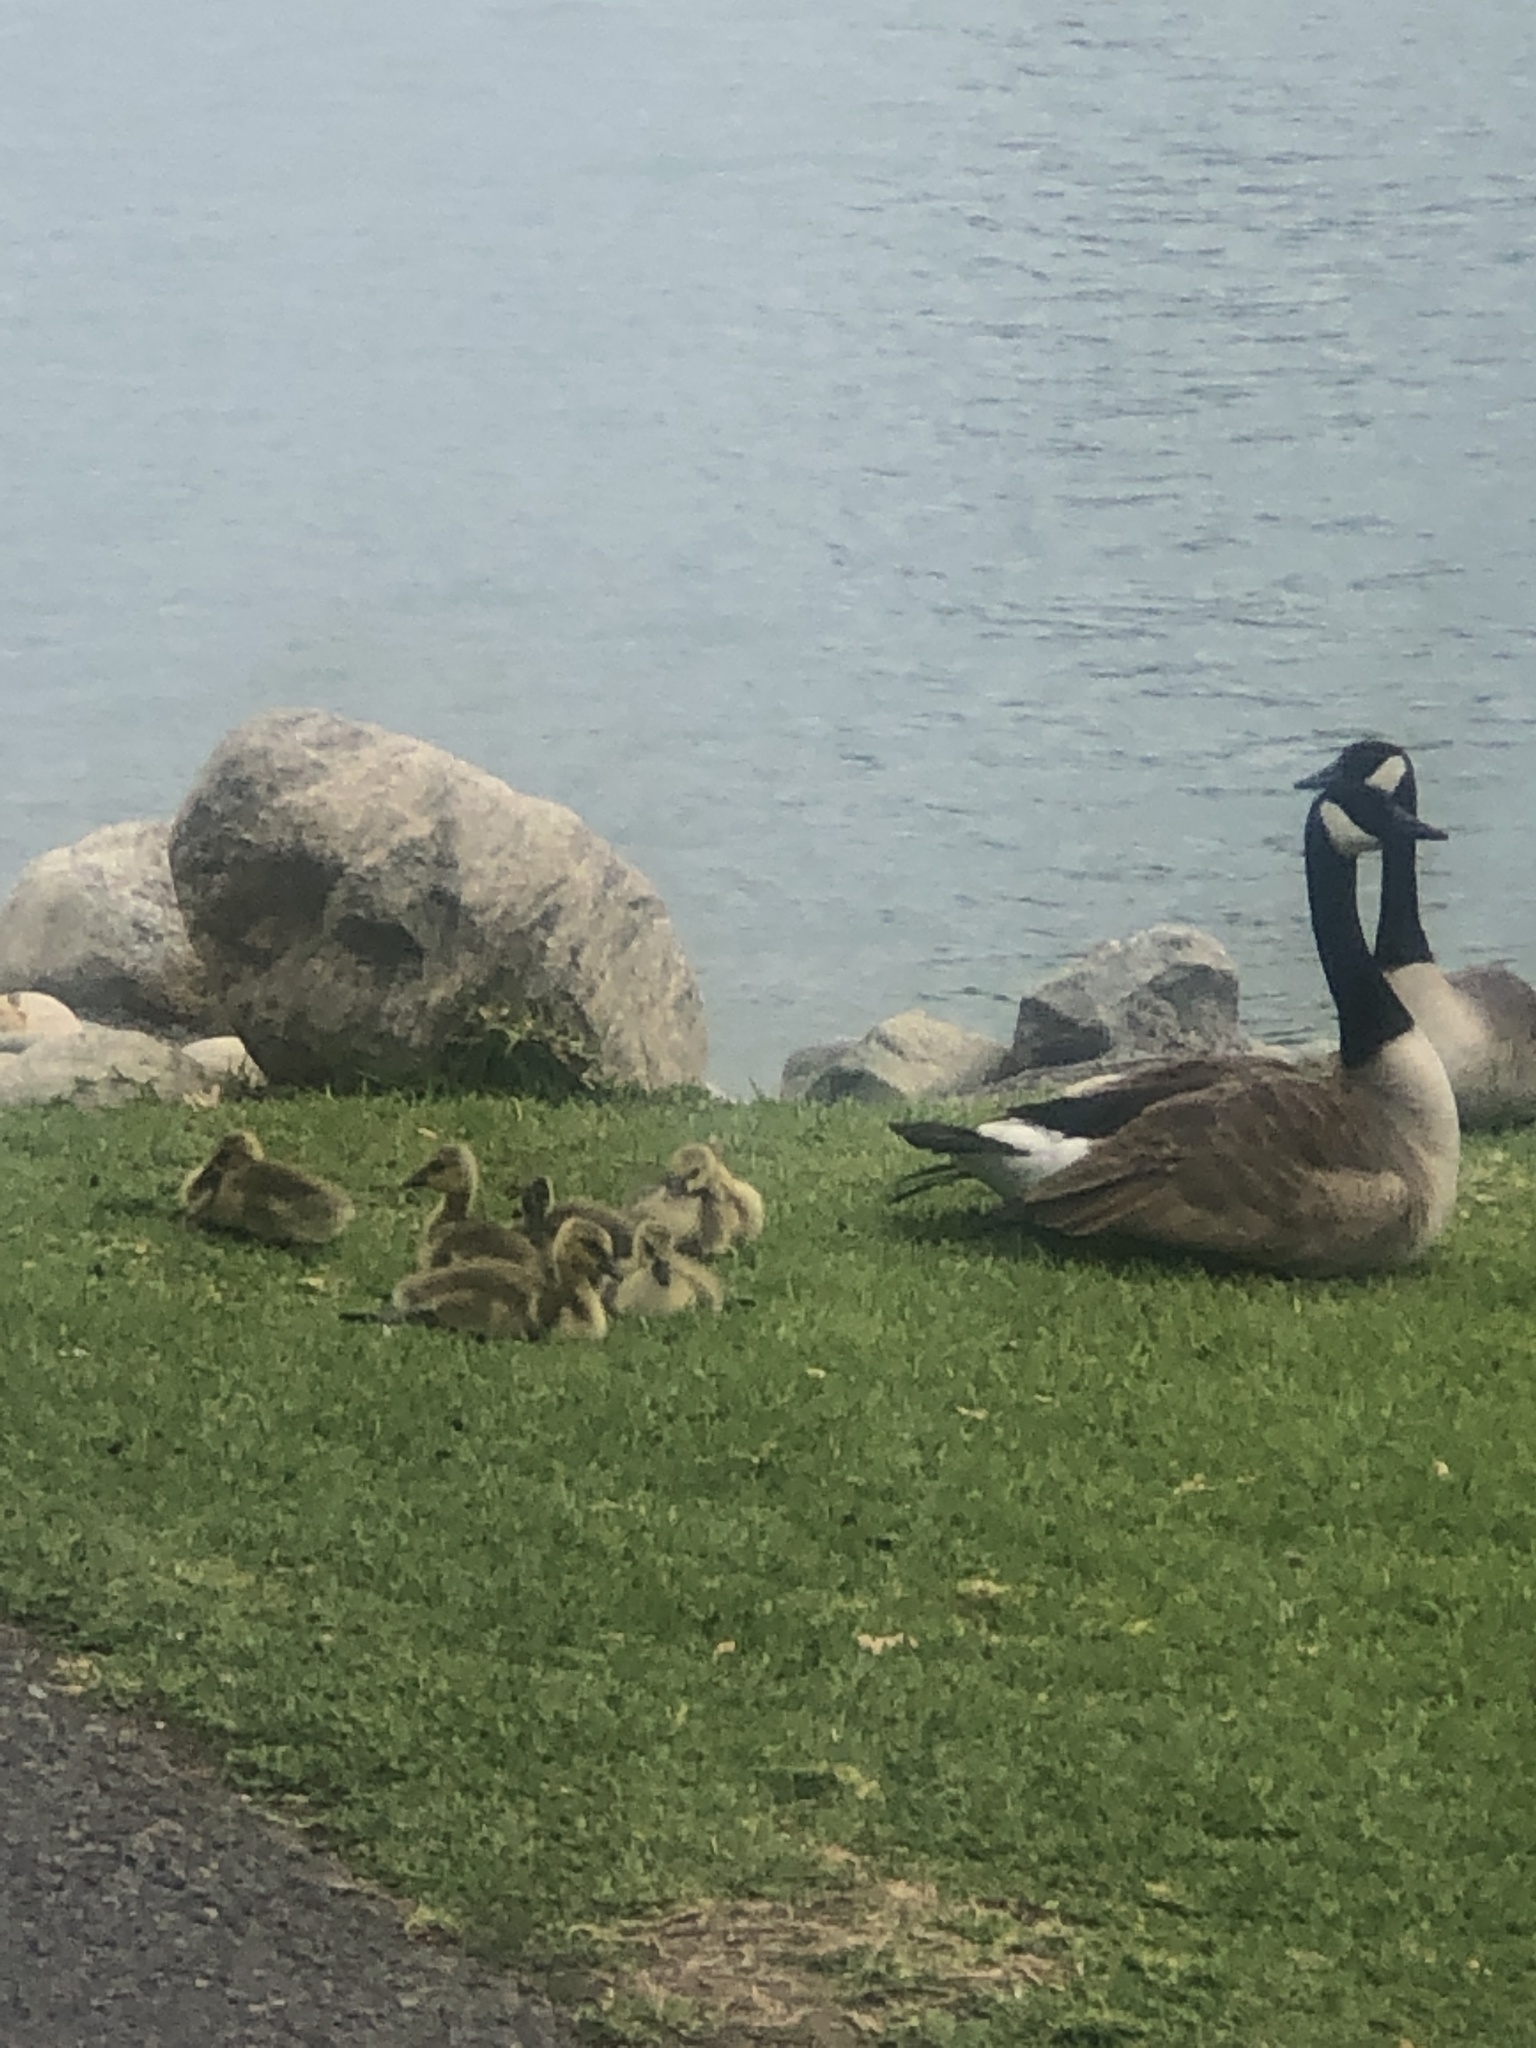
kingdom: Animalia
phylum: Chordata
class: Aves
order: Anseriformes
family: Anatidae
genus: Branta
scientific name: Branta canadensis
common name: Canada goose
